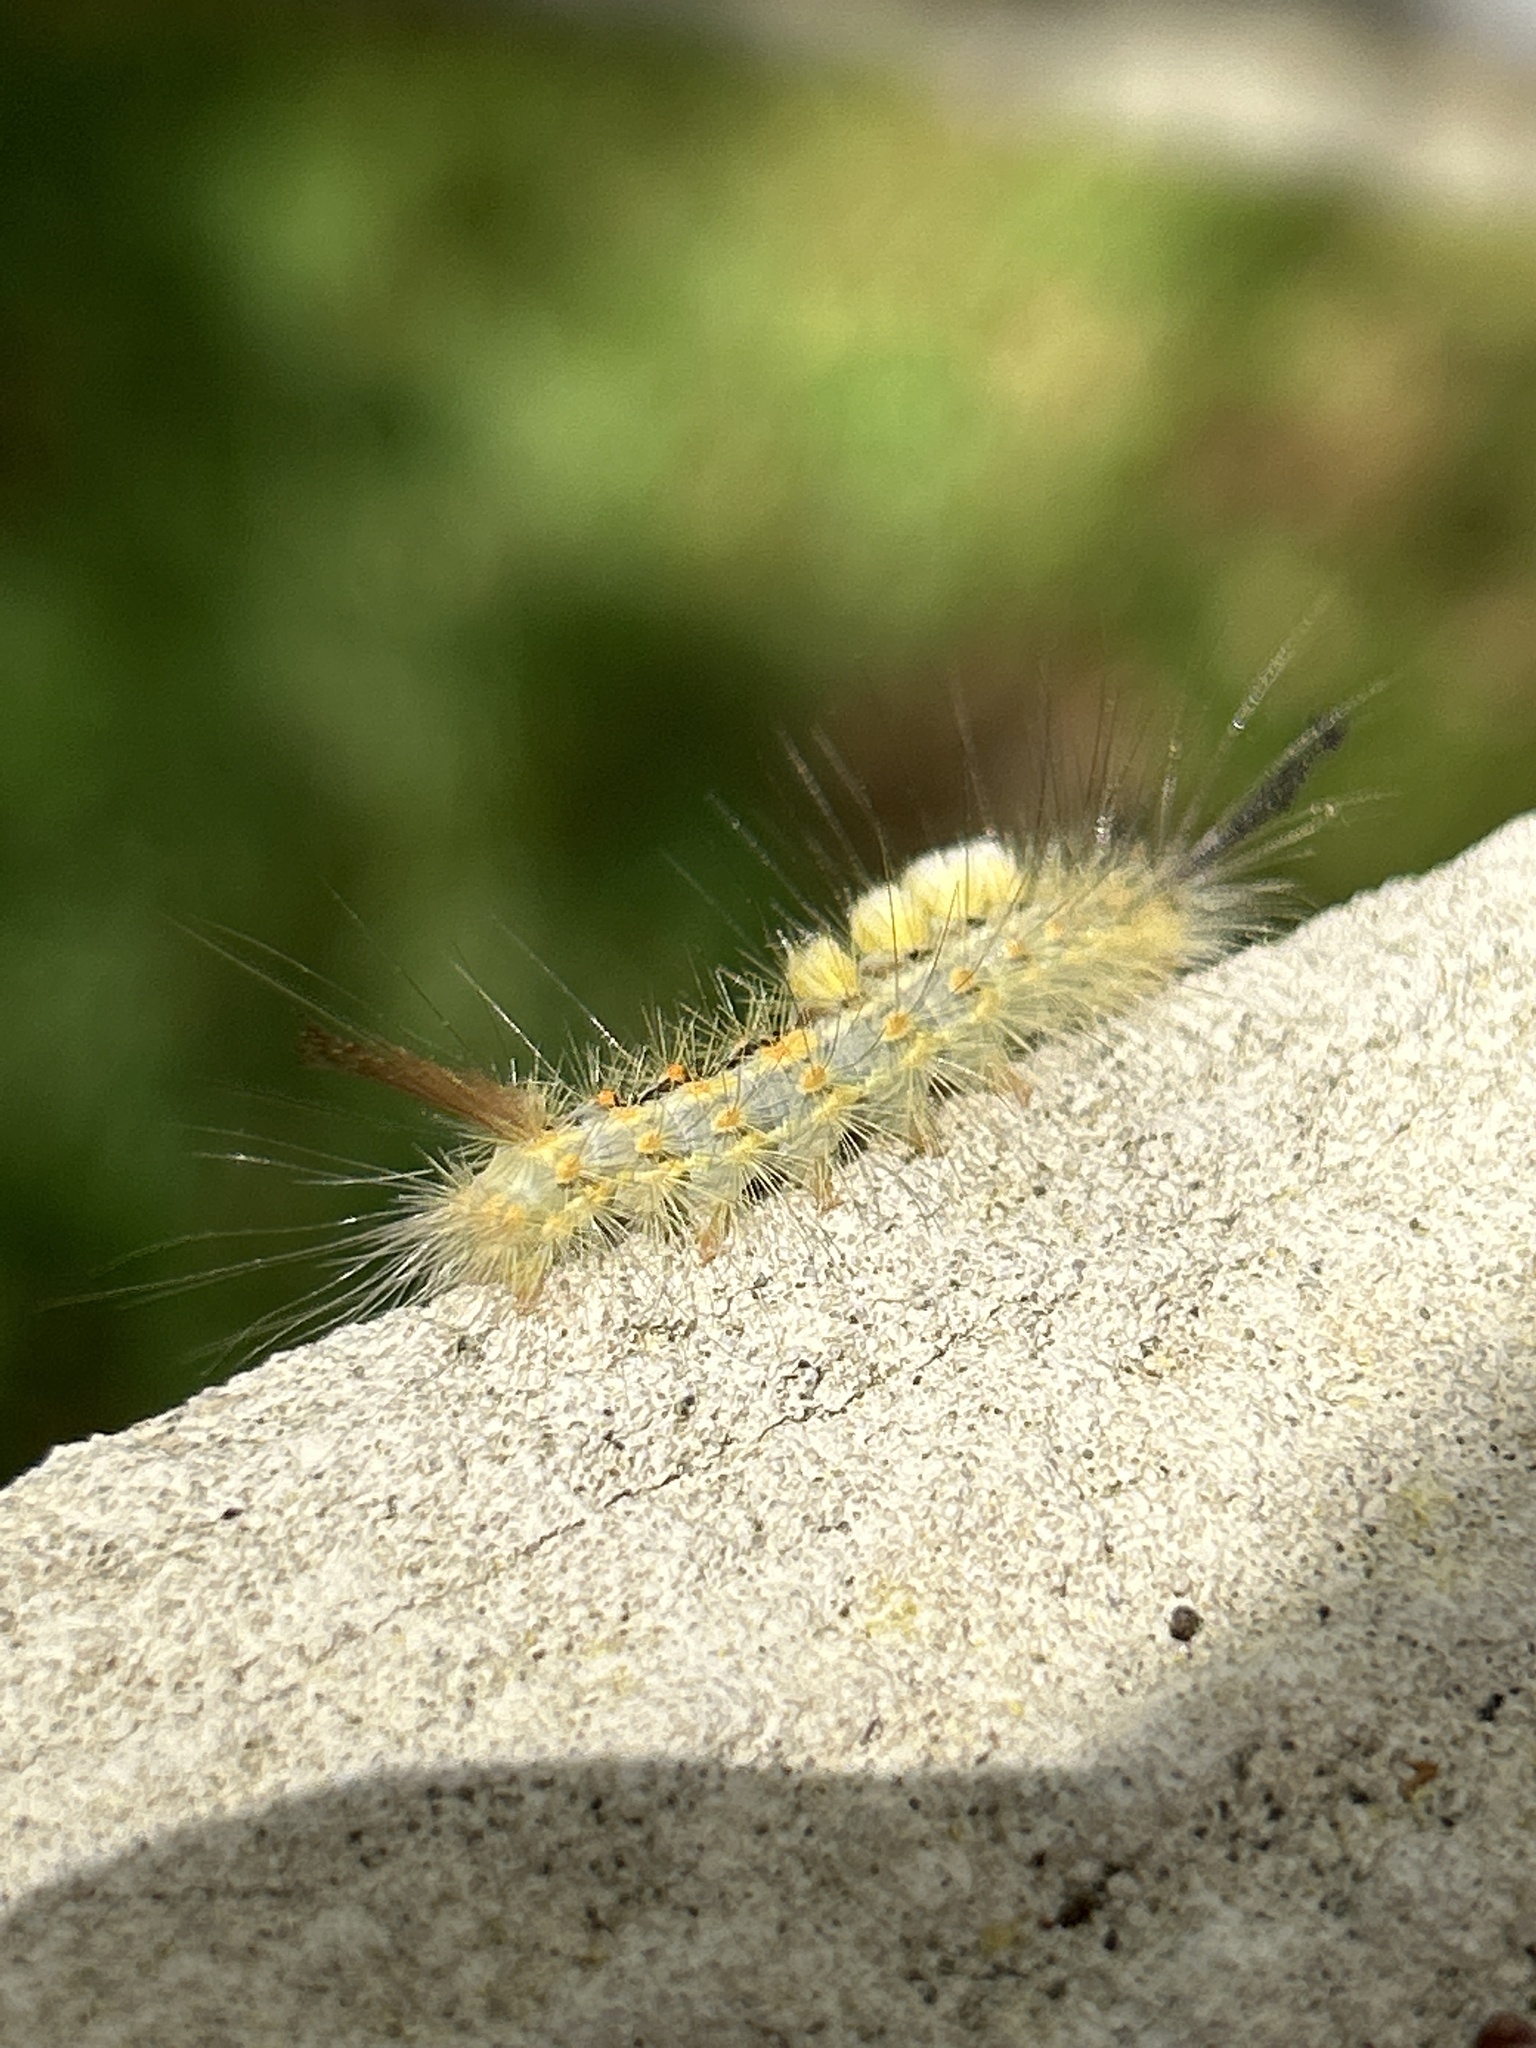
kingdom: Animalia
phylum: Arthropoda
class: Insecta
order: Lepidoptera
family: Erebidae
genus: Orgyia
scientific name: Orgyia detrita
